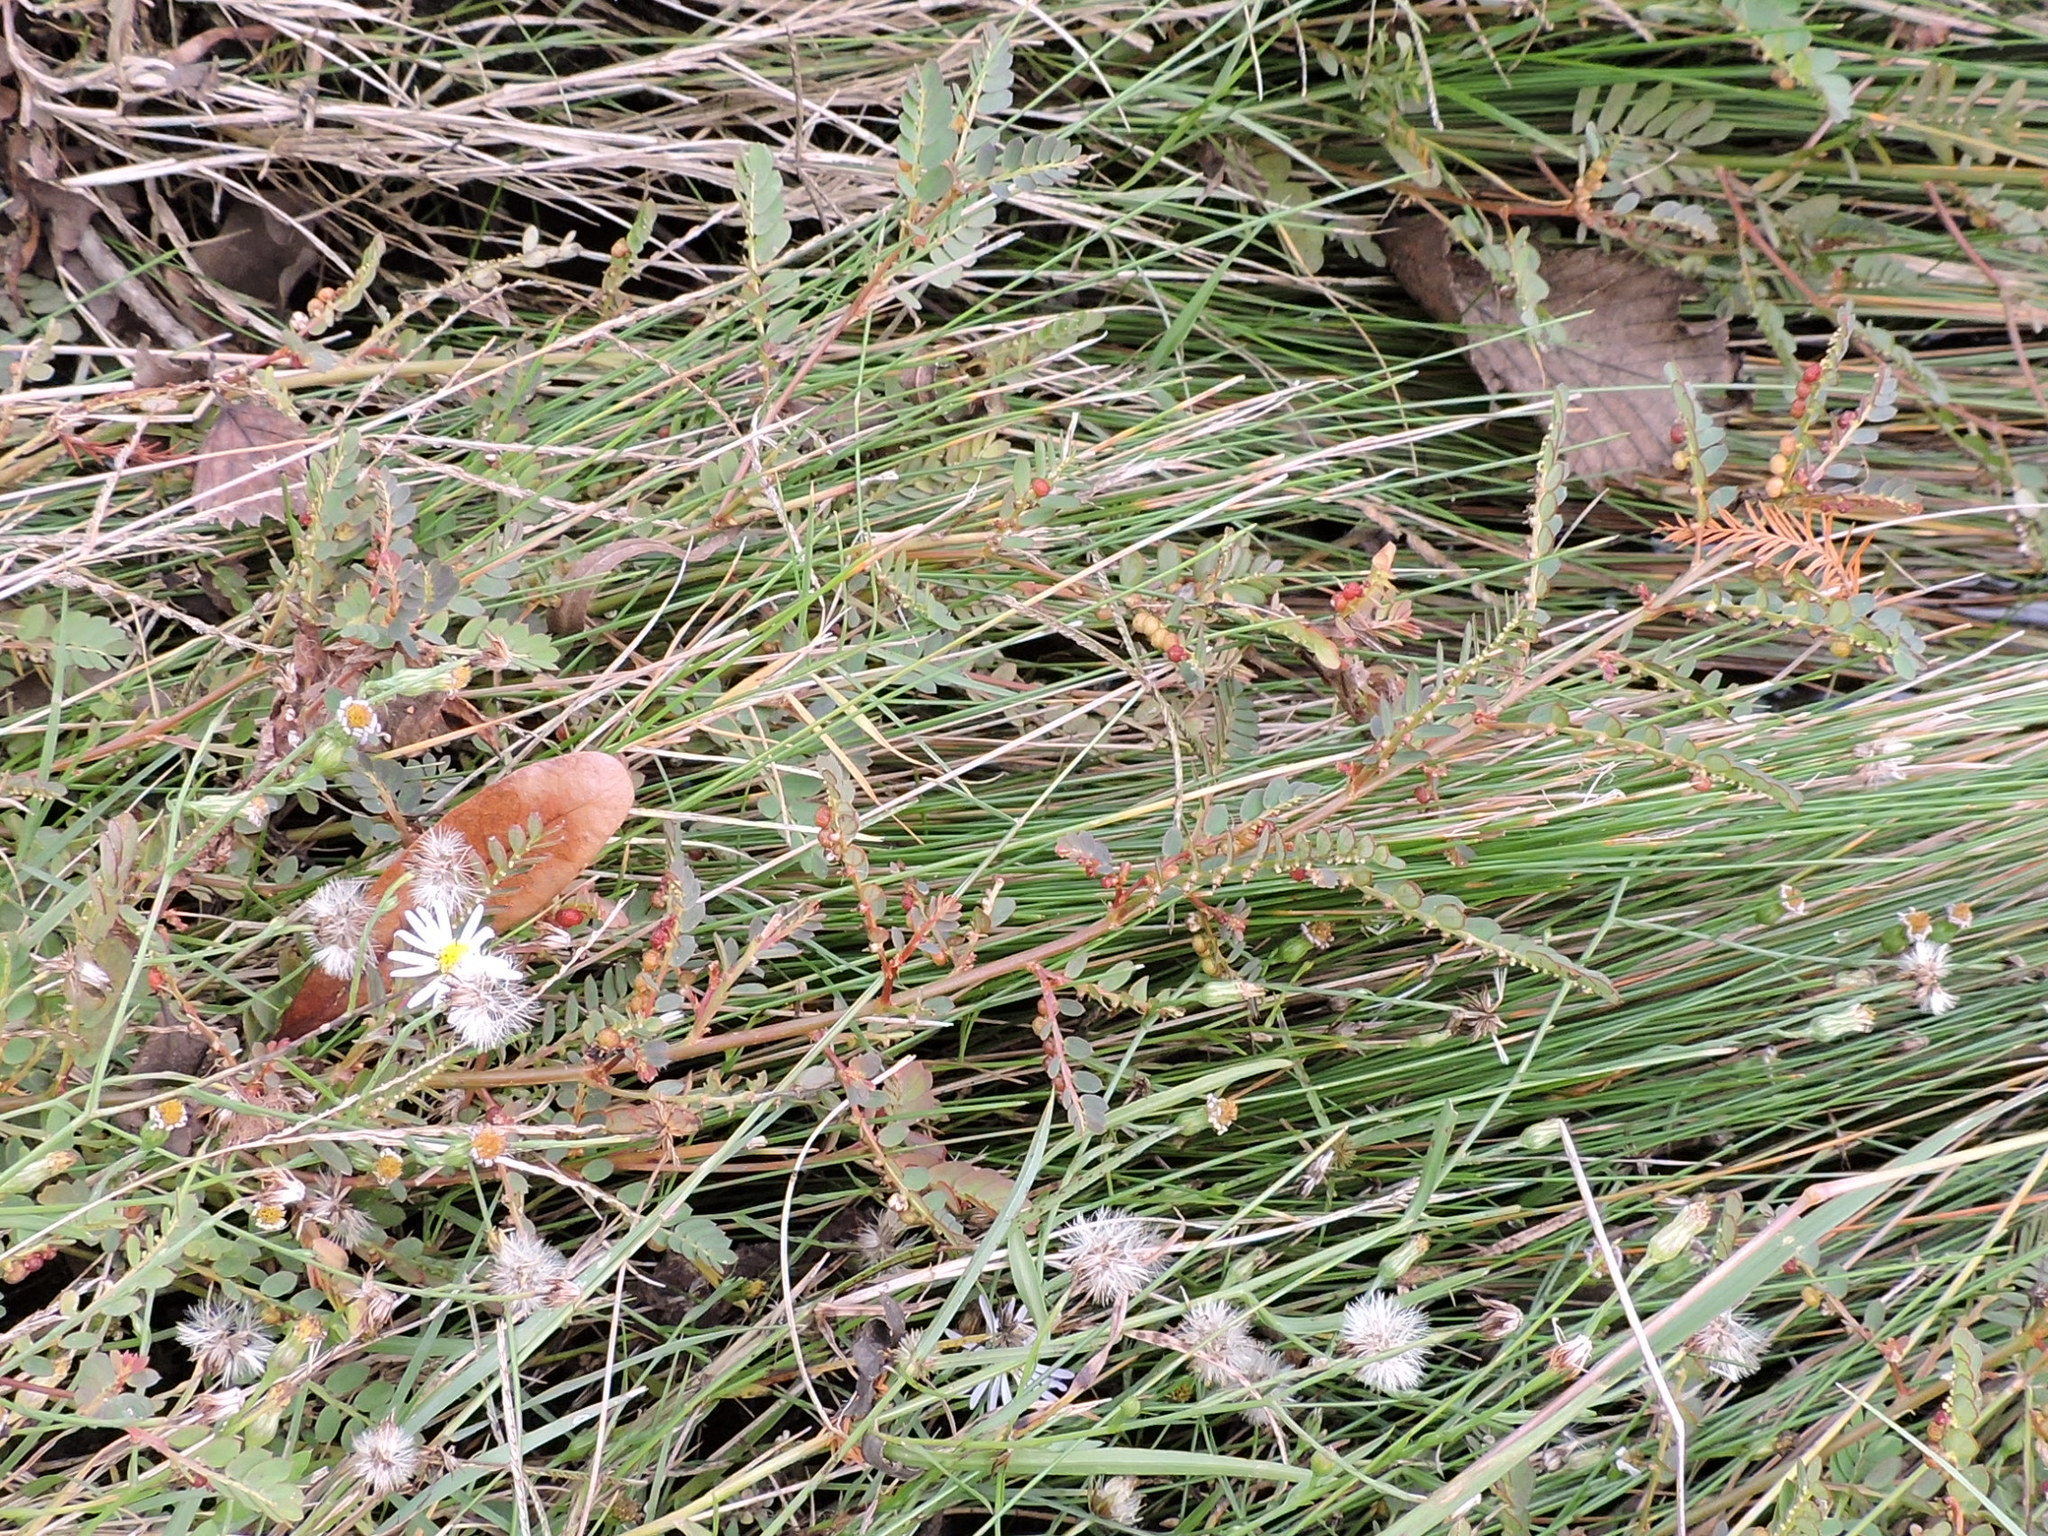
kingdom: Plantae
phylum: Tracheophyta
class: Magnoliopsida
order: Malpighiales
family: Phyllanthaceae
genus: Phyllanthus
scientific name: Phyllanthus urinaria
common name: Chamber bitter
